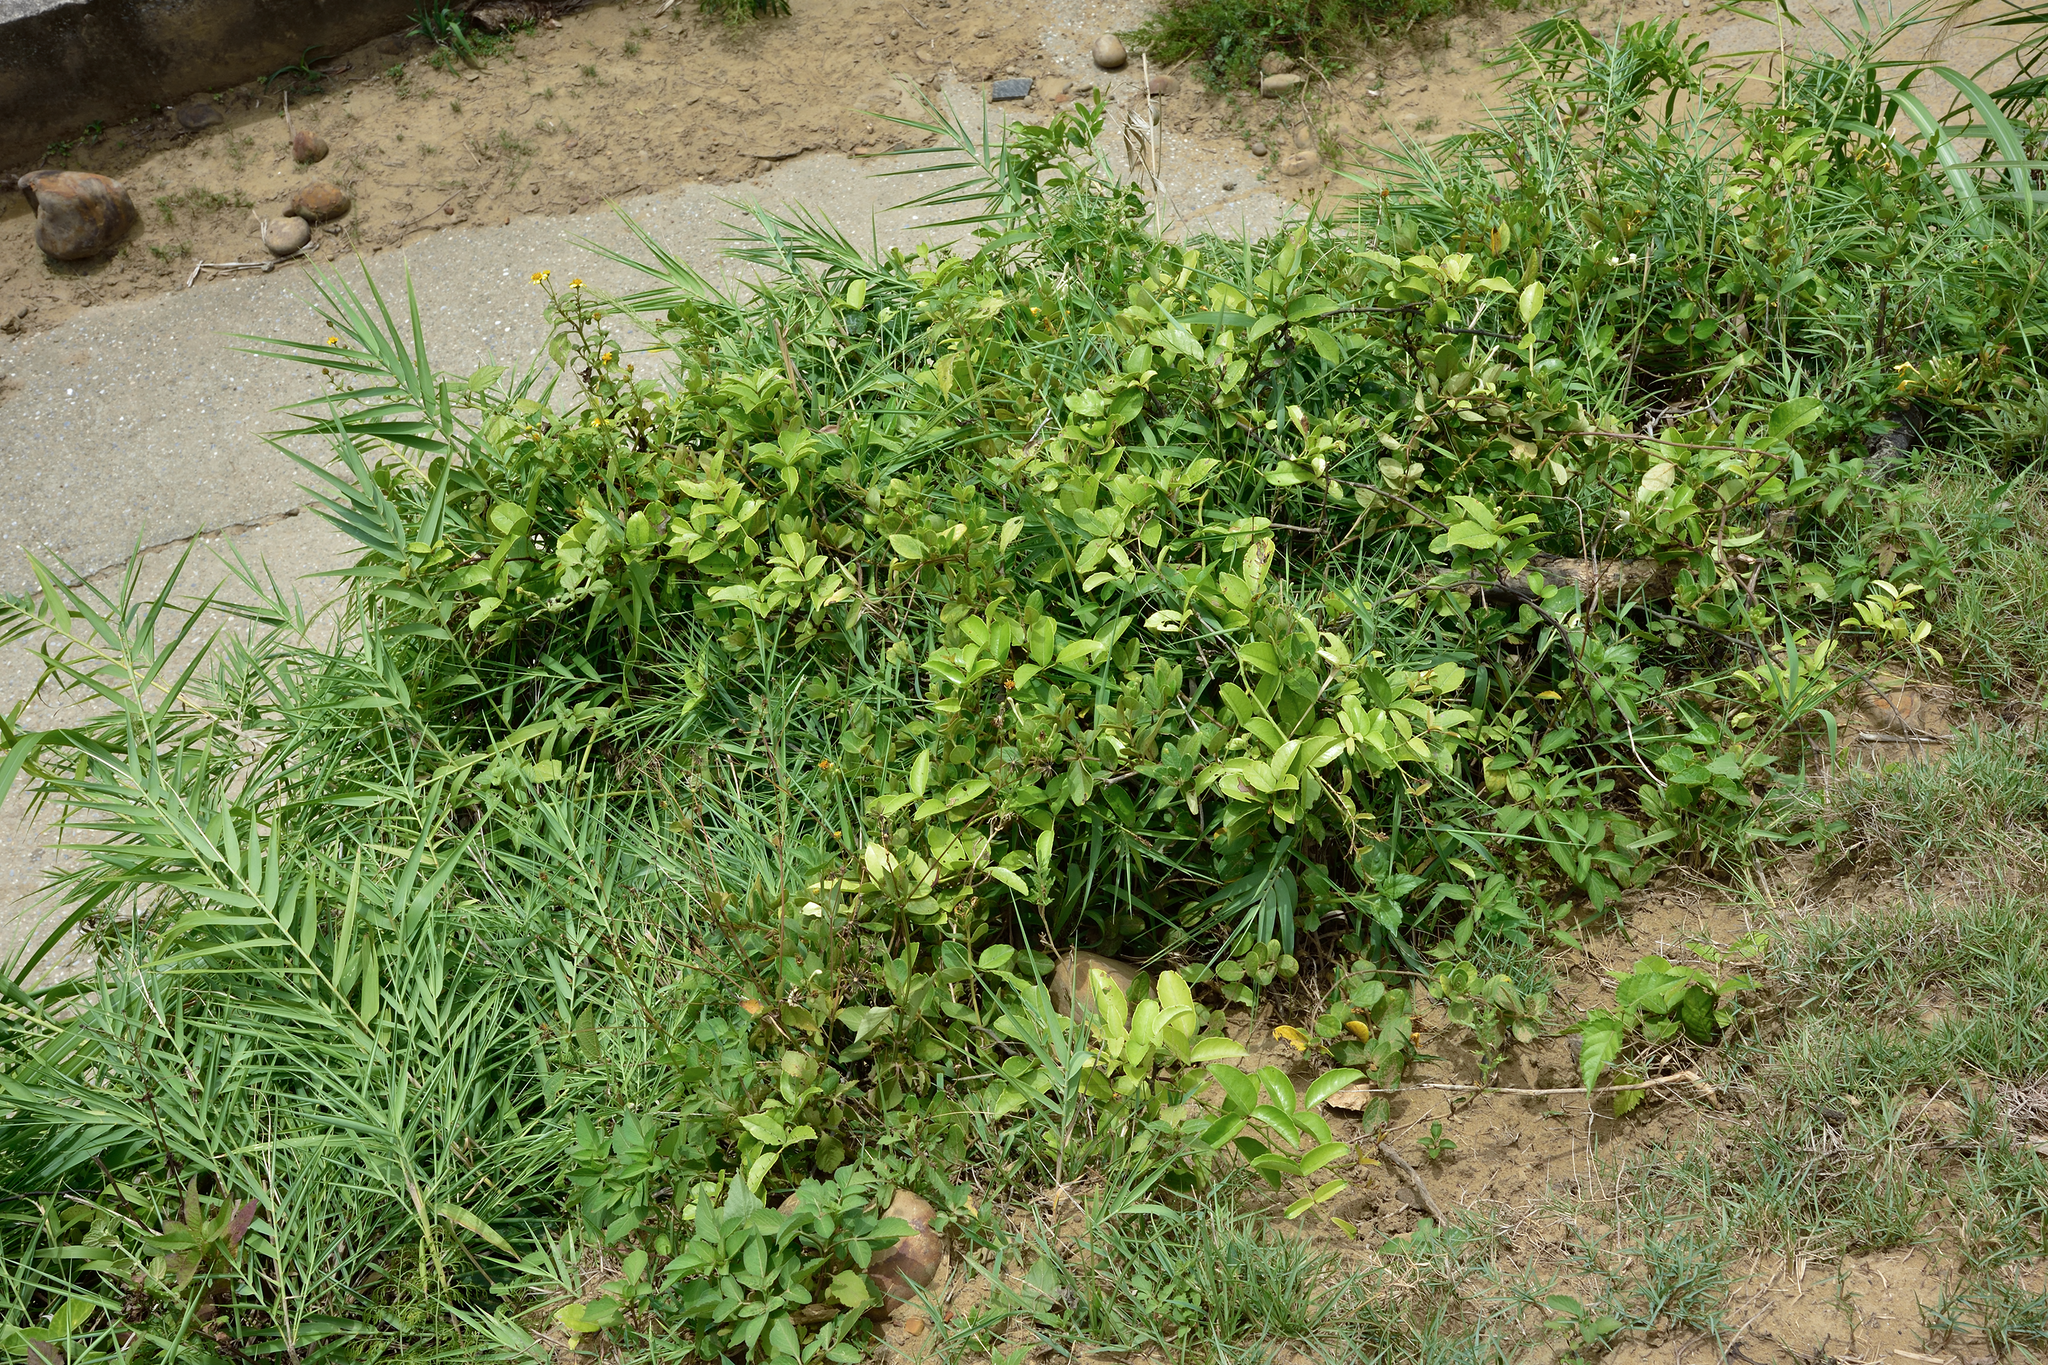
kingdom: Plantae
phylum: Tracheophyta
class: Magnoliopsida
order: Sapindales
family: Rutaceae
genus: Zanthoxylum
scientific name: Zanthoxylum nitidum
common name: Shiny-leaf prickly-ash
